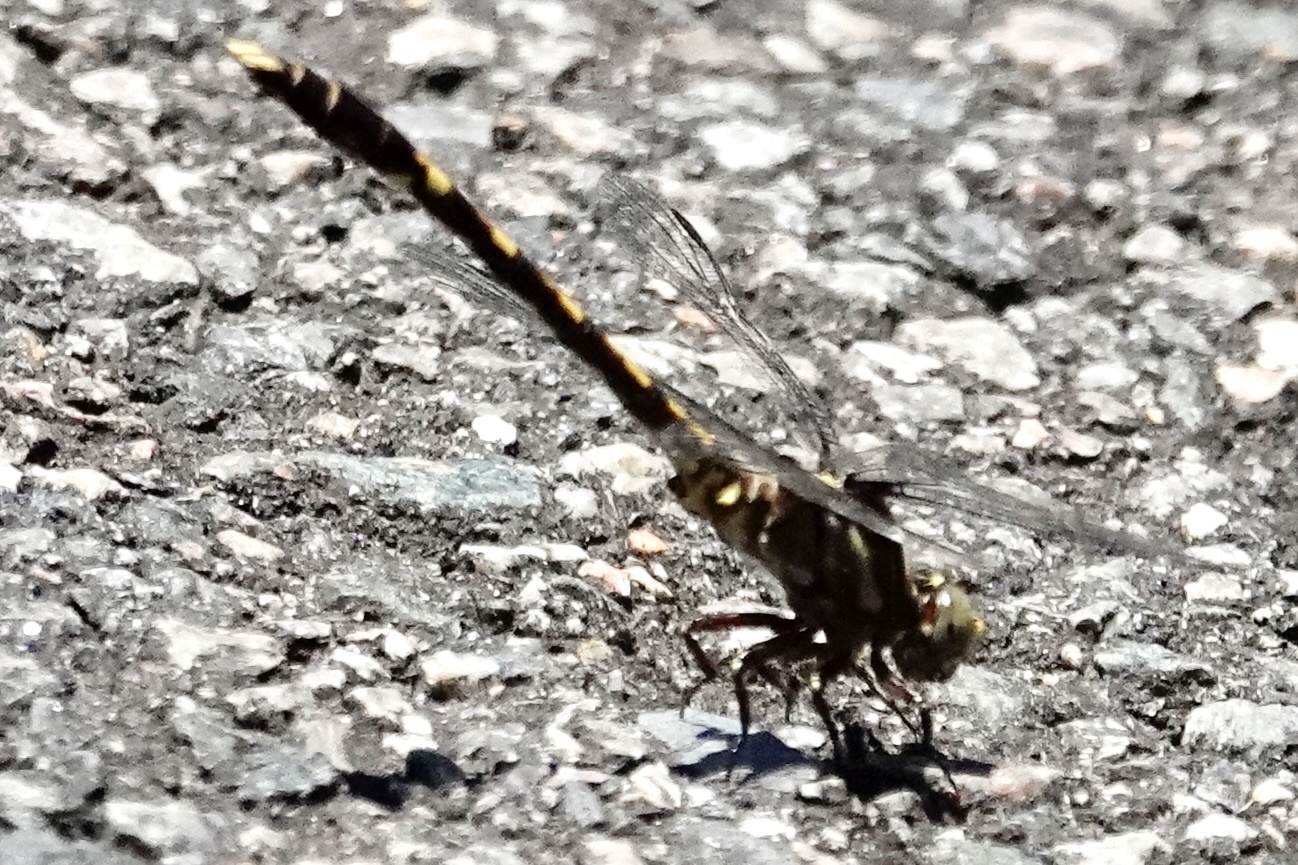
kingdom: Animalia
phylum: Arthropoda
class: Insecta
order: Odonata
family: Gomphidae
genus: Progomphus
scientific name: Progomphus obscurus
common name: Common sanddragon
